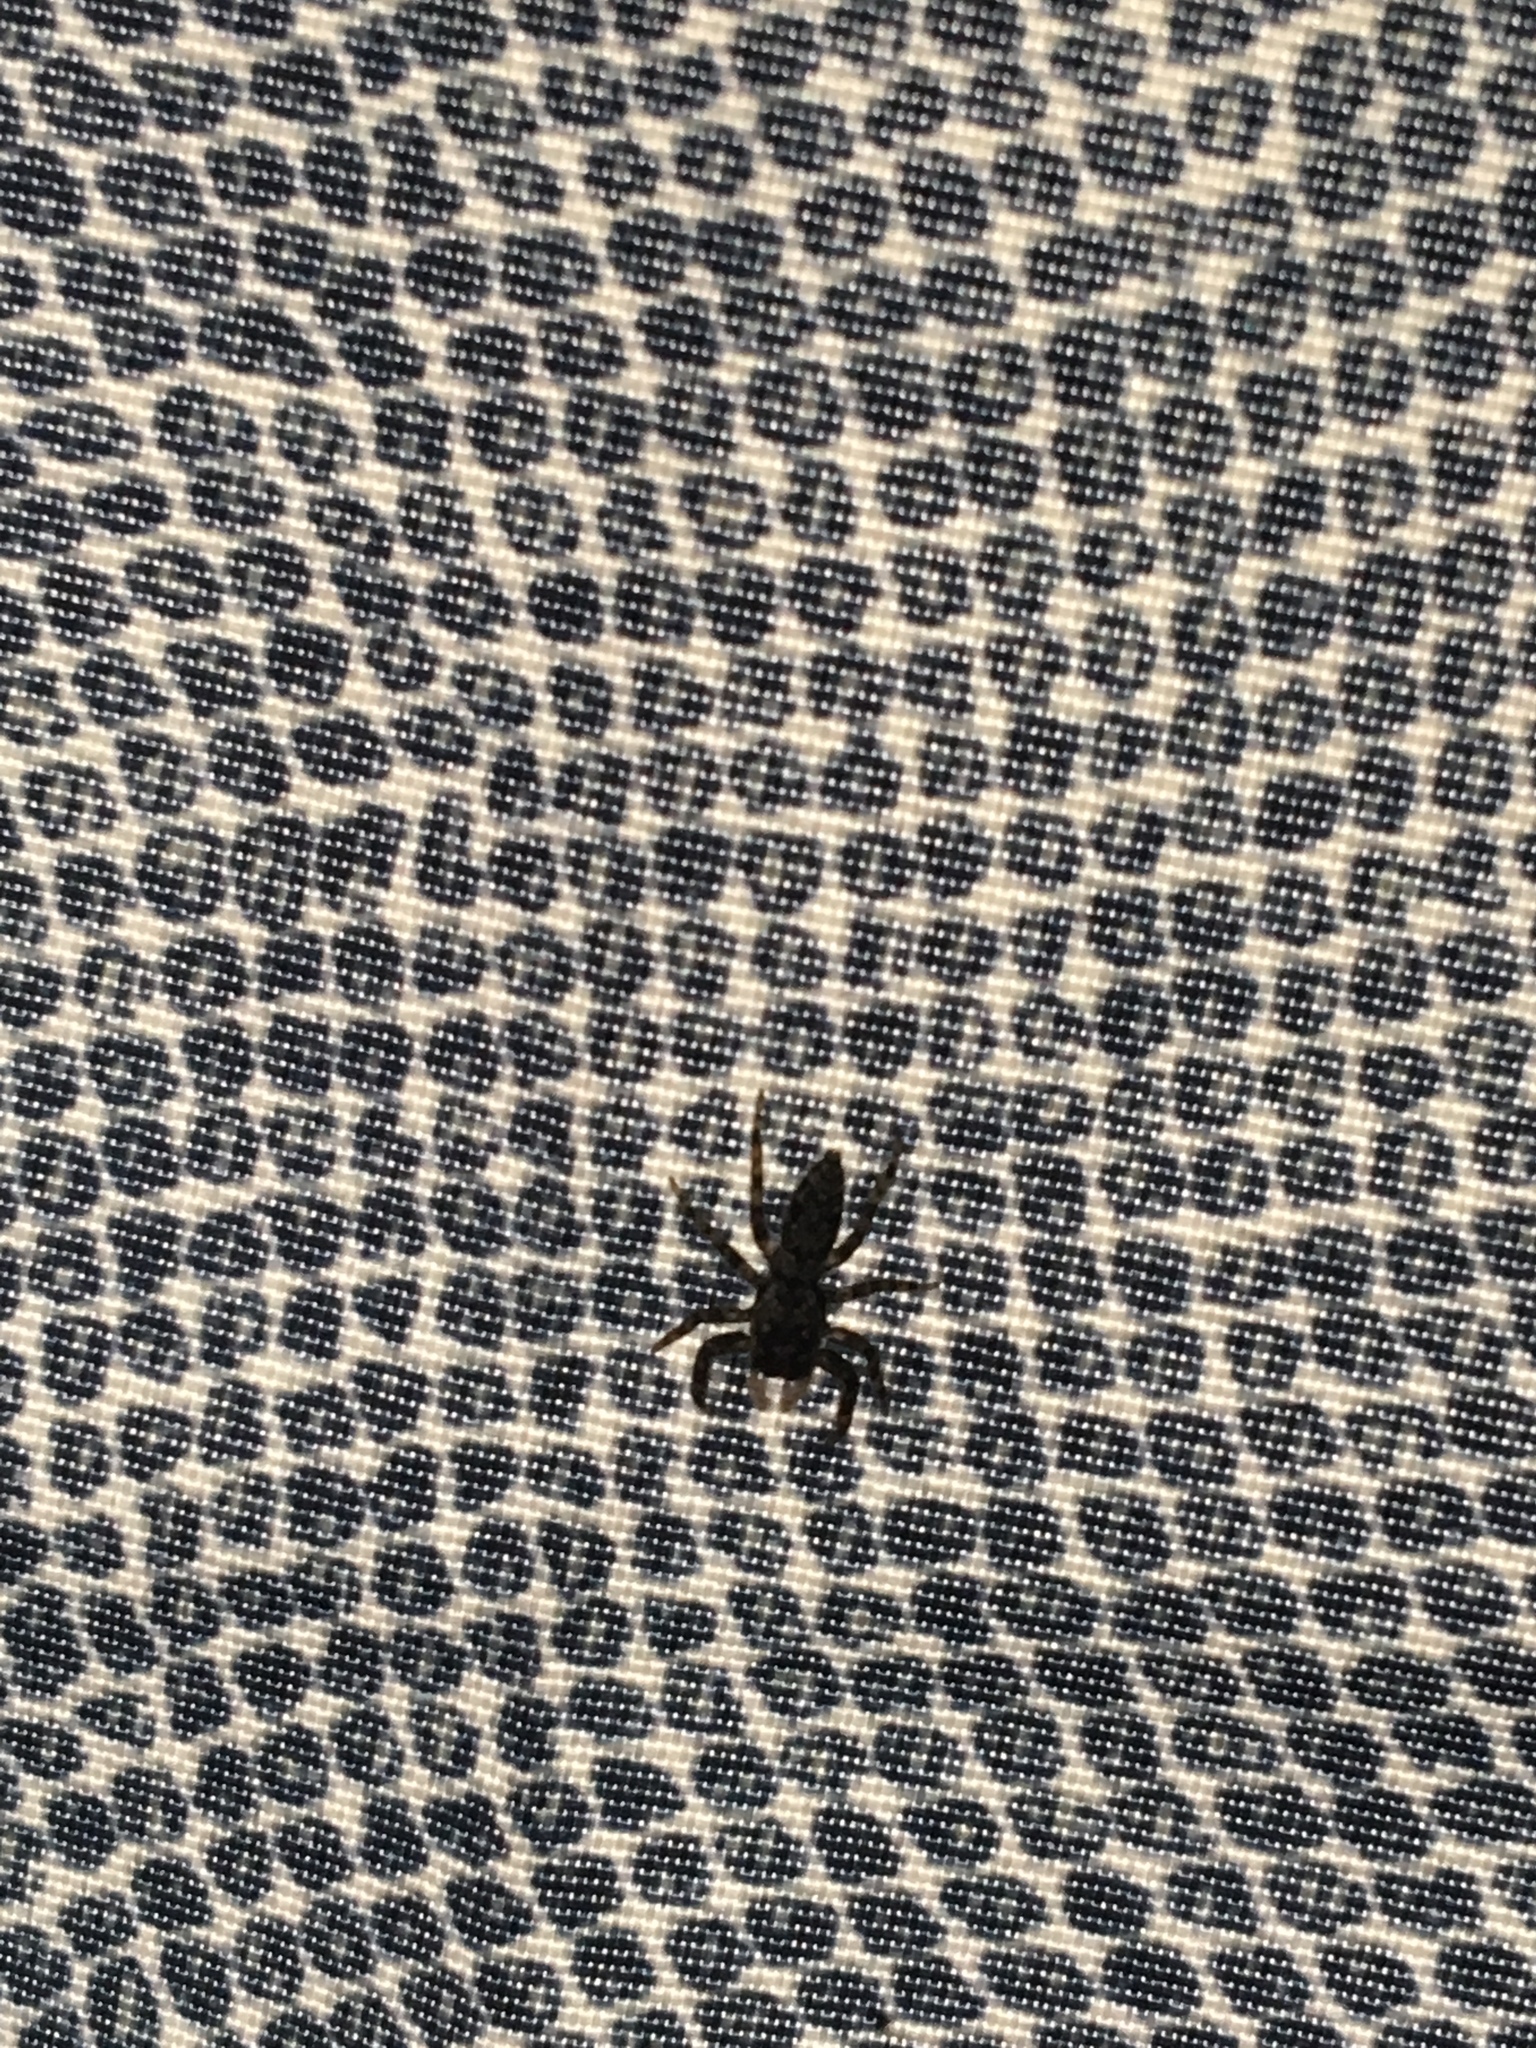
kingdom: Animalia
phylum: Arthropoda
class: Arachnida
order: Araneae
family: Salticidae
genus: Platycryptus
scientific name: Platycryptus undatus
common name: Tan jumping spider
